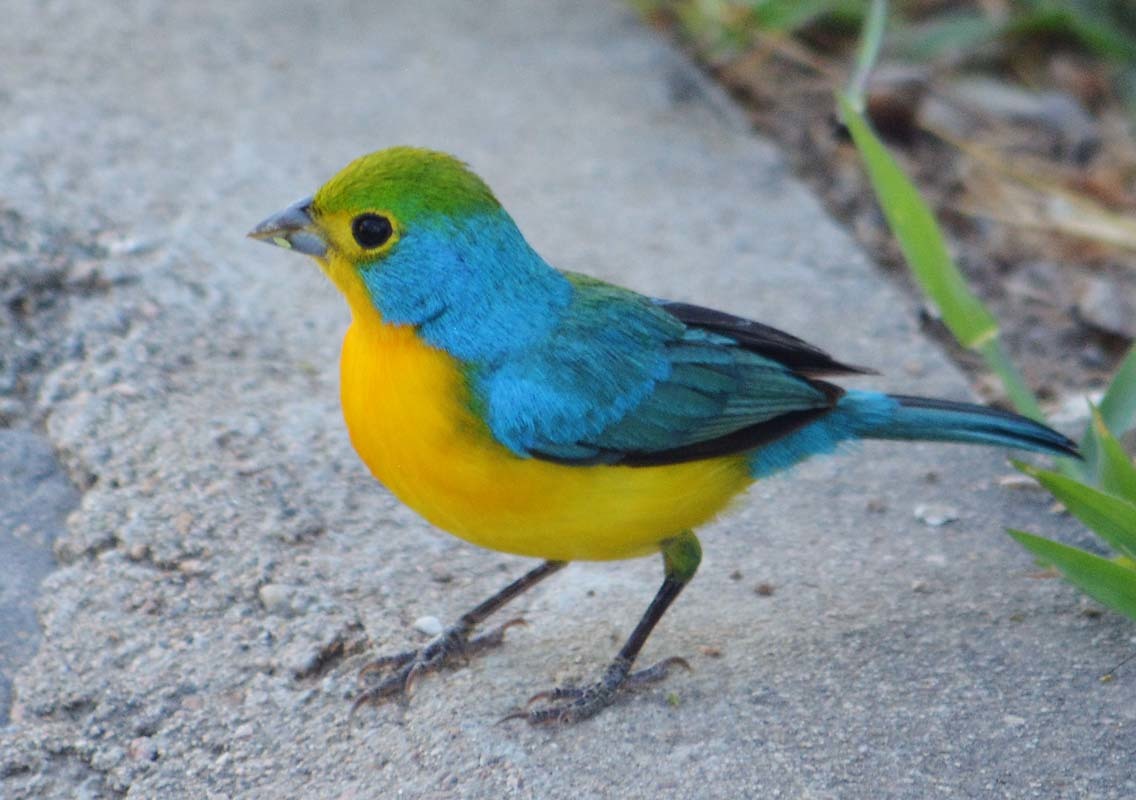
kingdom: Animalia
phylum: Chordata
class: Aves
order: Passeriformes
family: Cardinalidae
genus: Passerina
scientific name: Passerina leclancherii
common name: Orange-breasted bunting
